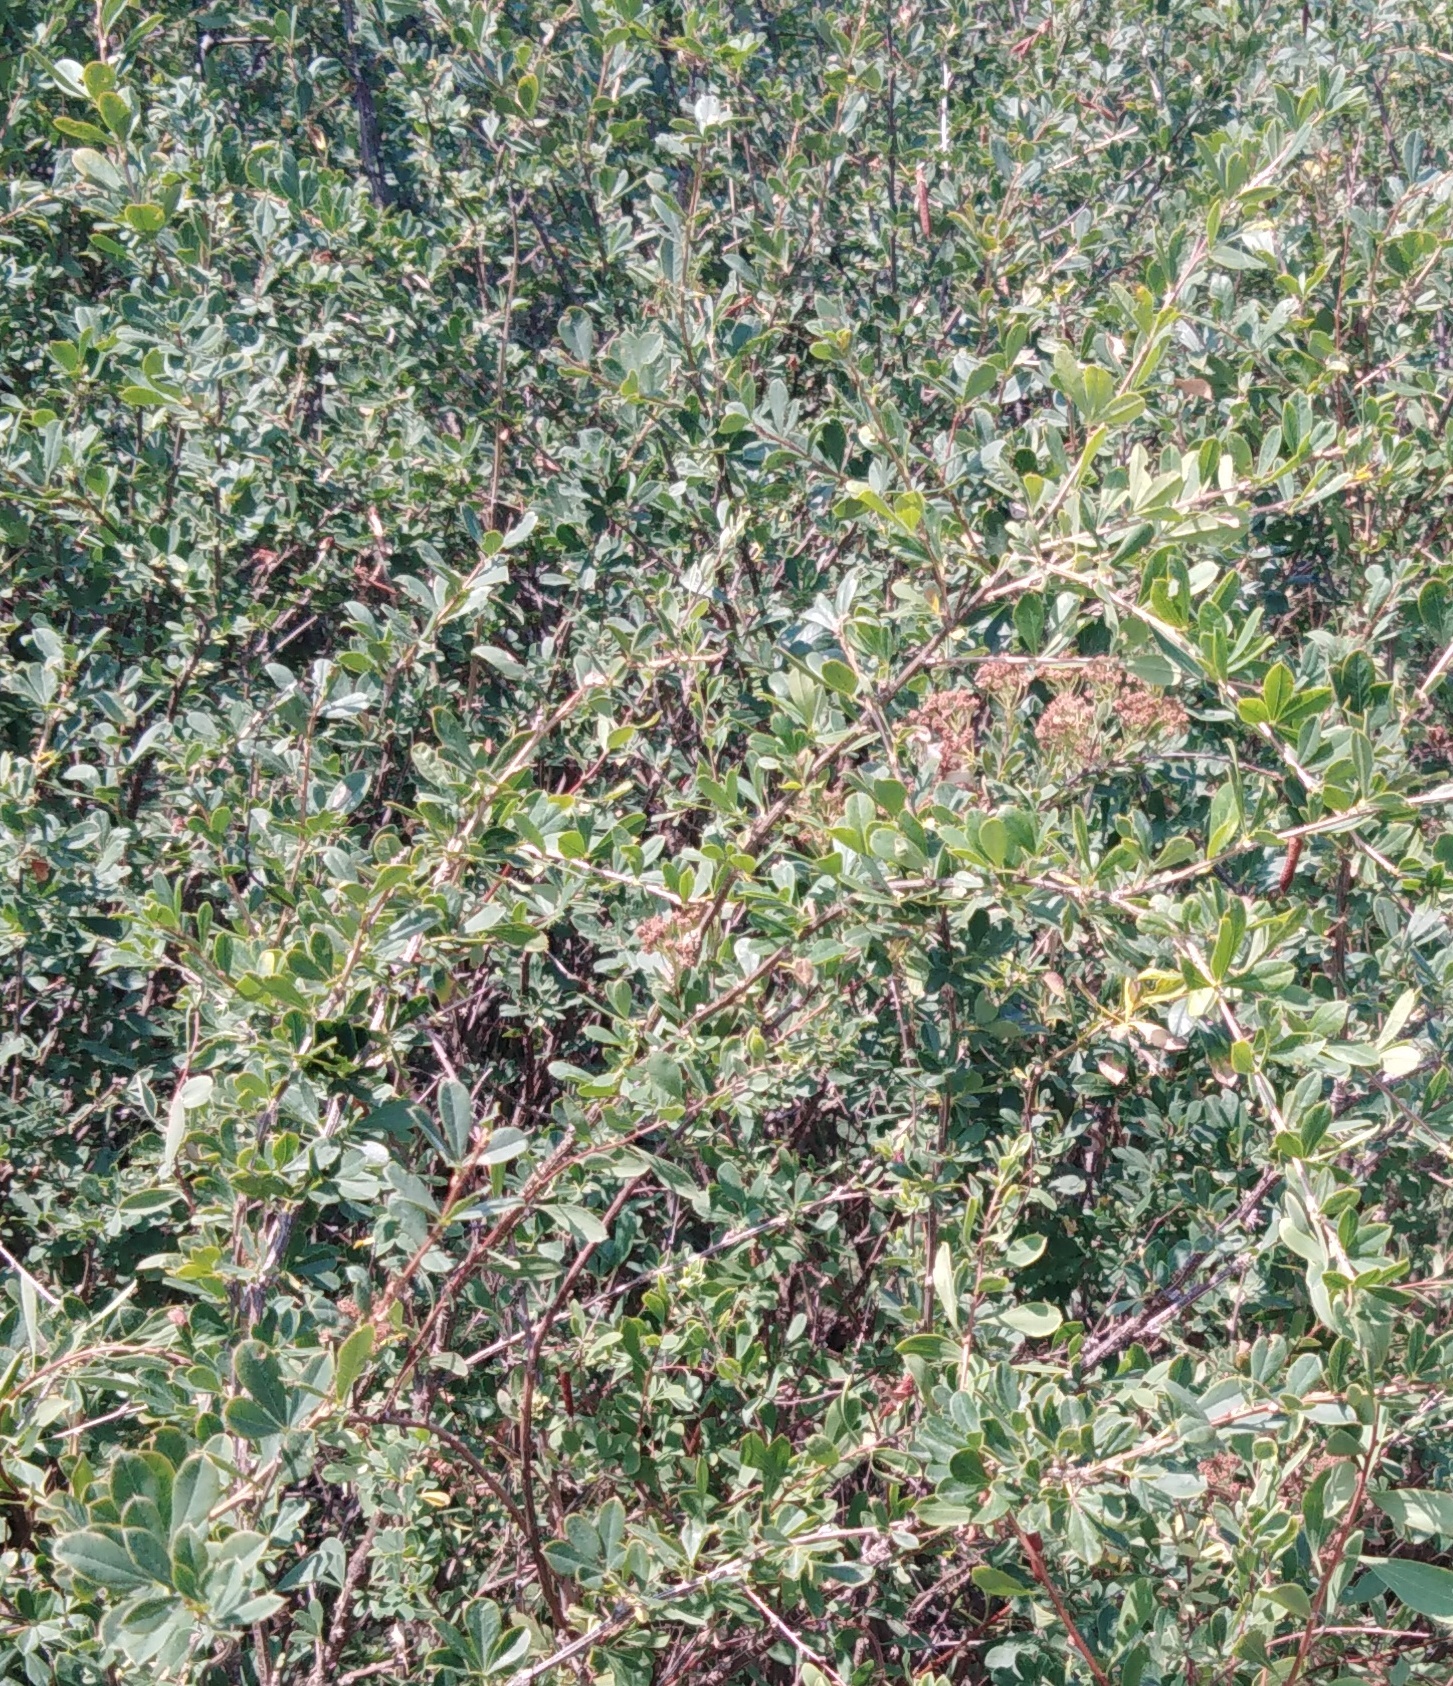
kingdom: Plantae
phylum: Tracheophyta
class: Magnoliopsida
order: Rosales
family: Rosaceae
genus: Spiraea
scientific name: Spiraea crenata
